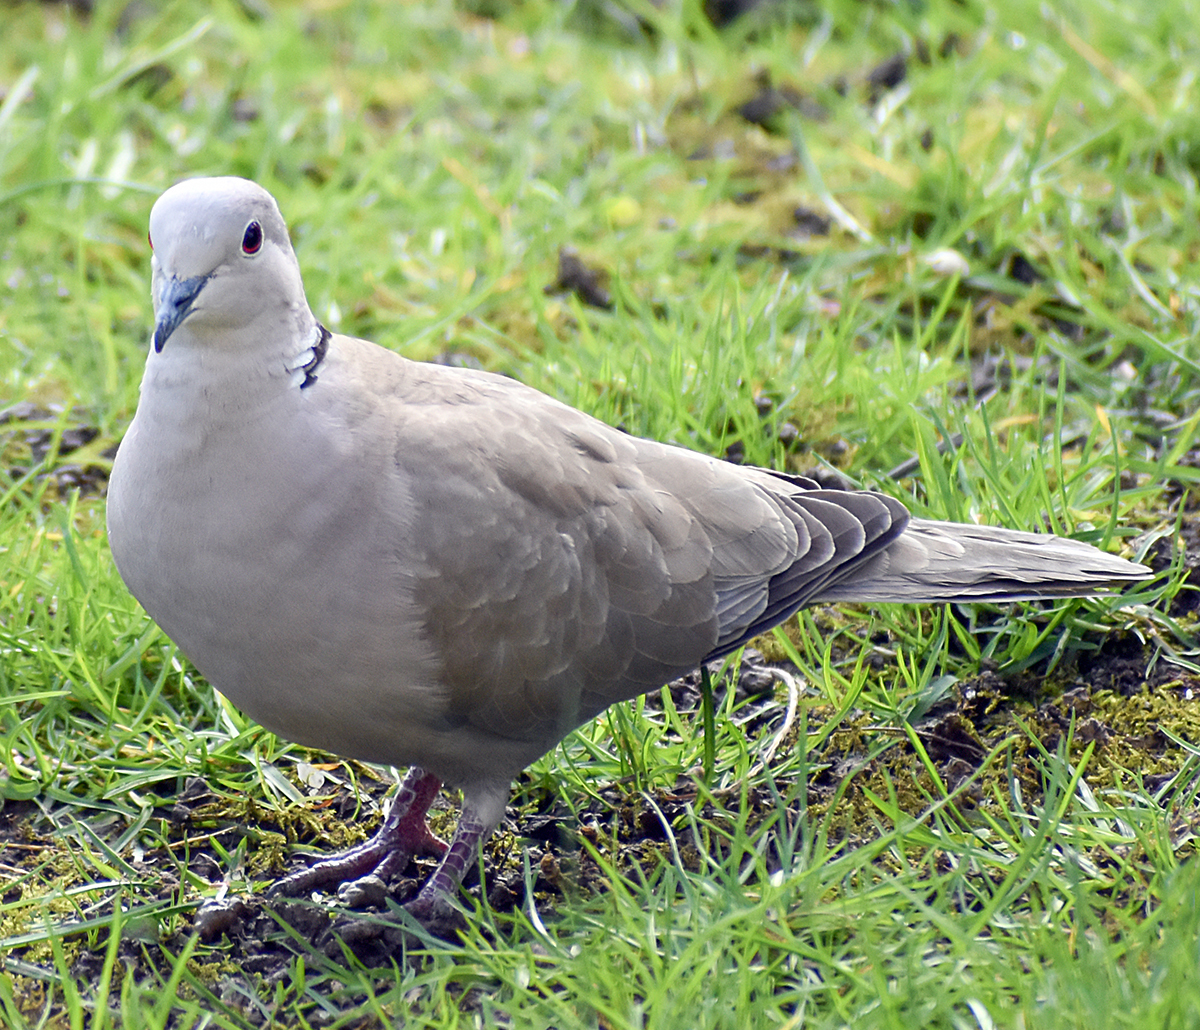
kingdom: Animalia
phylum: Chordata
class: Aves
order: Columbiformes
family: Columbidae
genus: Streptopelia
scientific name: Streptopelia decaocto
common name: Eurasian collared dove
